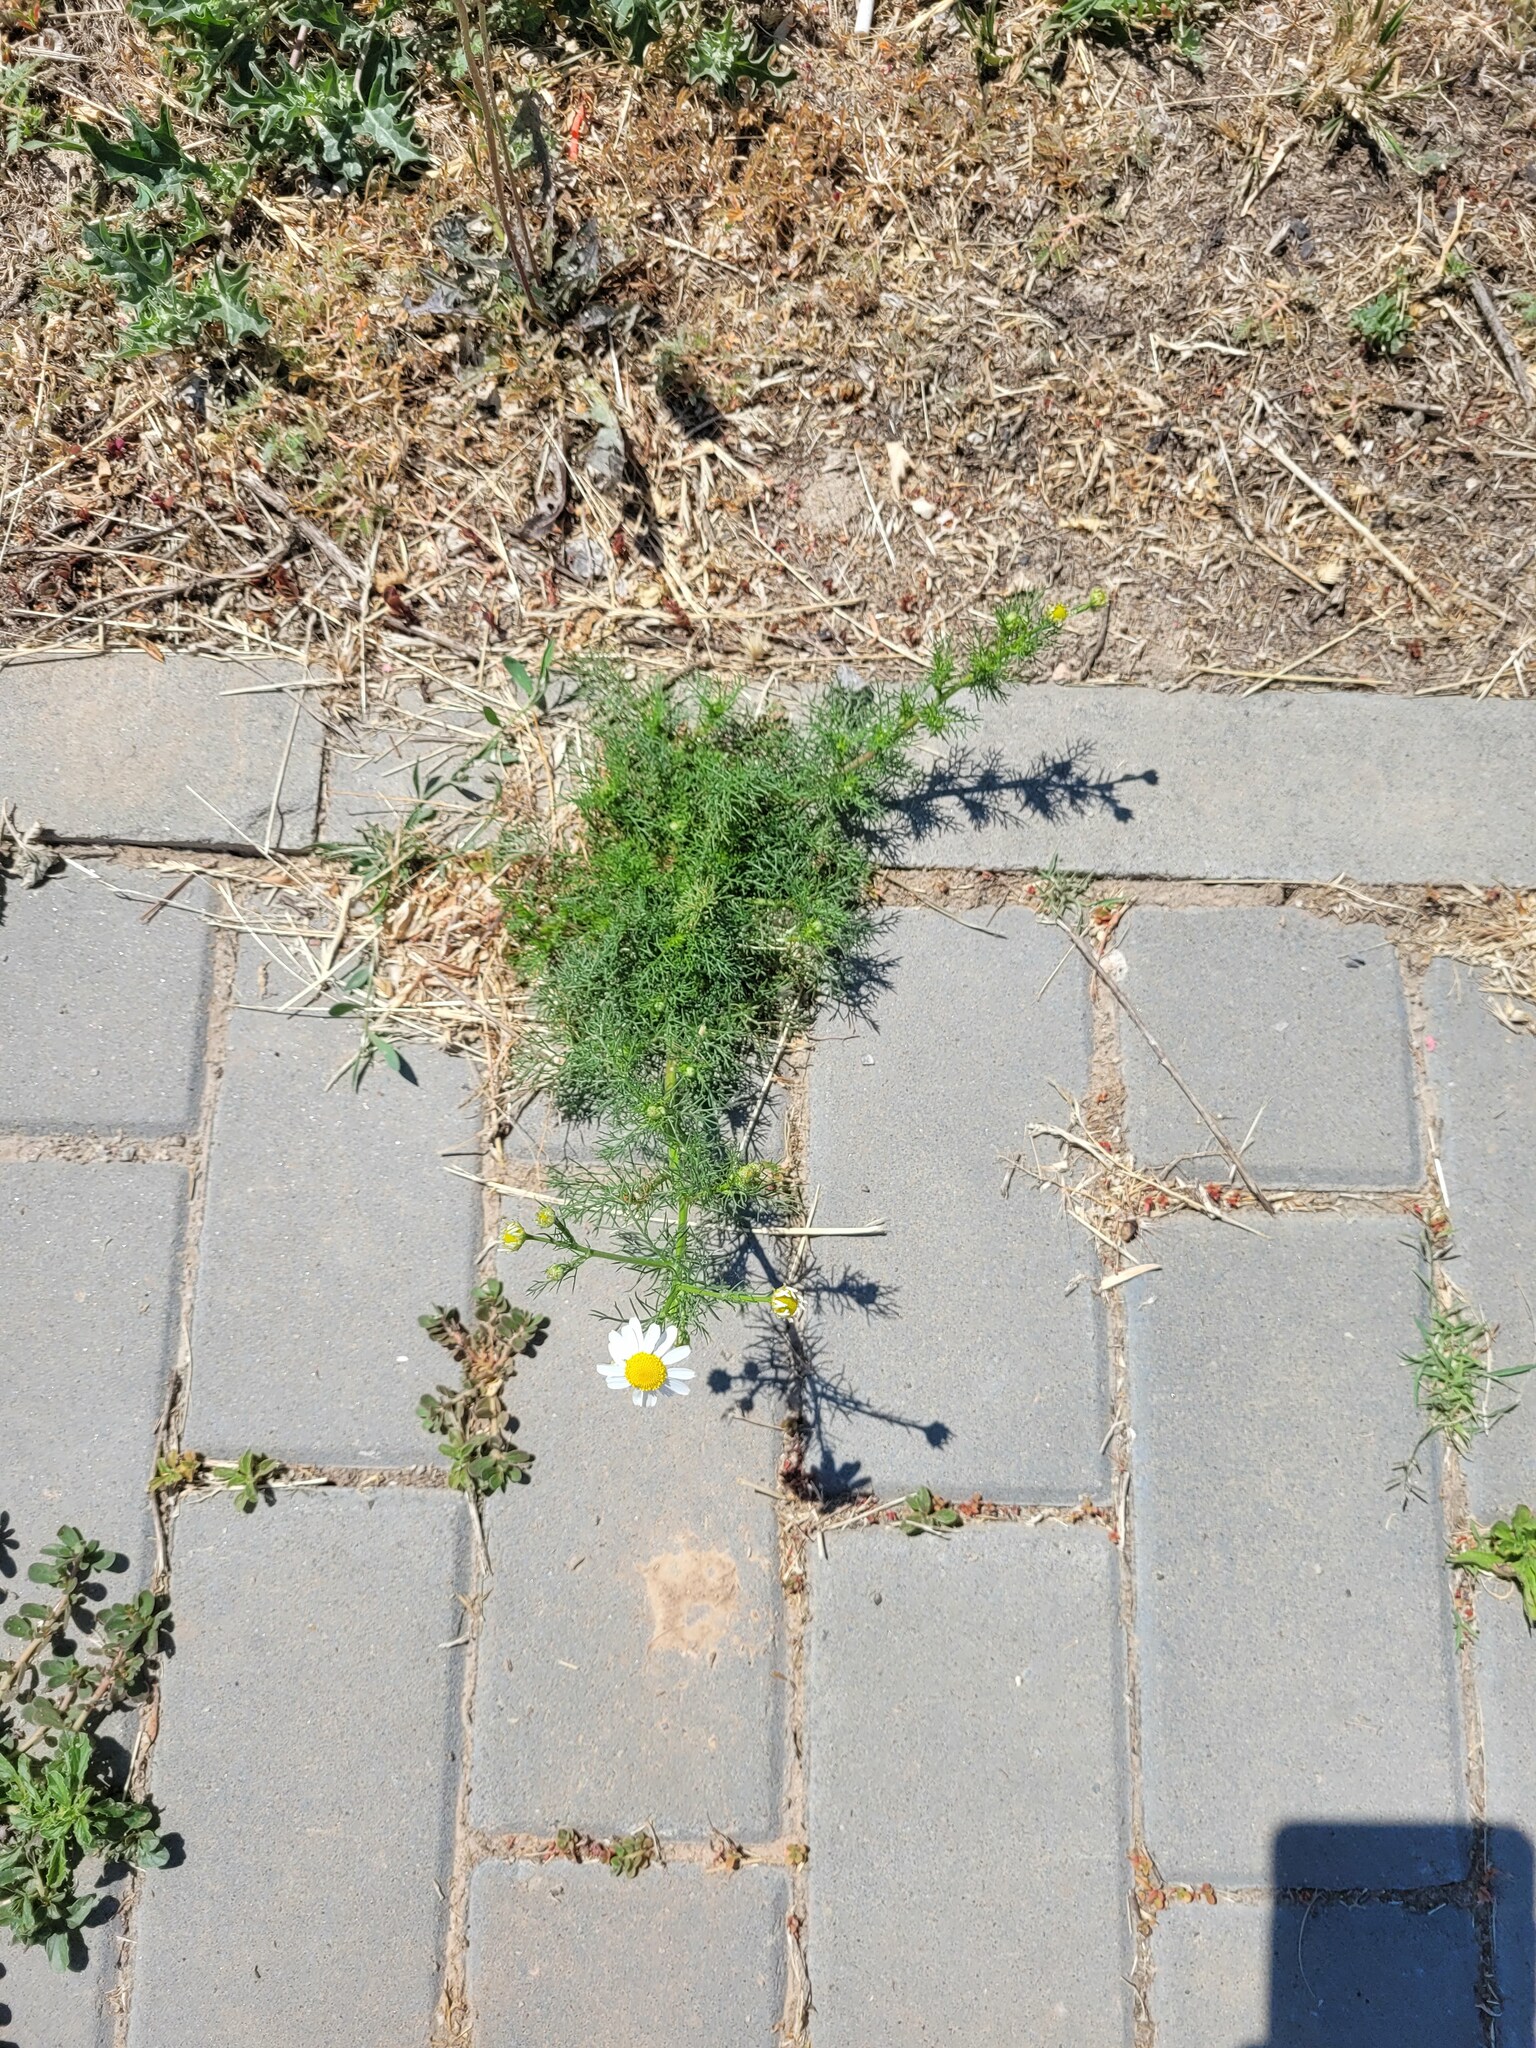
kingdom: Plantae
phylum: Tracheophyta
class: Magnoliopsida
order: Asterales
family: Asteraceae
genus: Tripleurospermum
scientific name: Tripleurospermum inodorum
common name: Scentless mayweed
